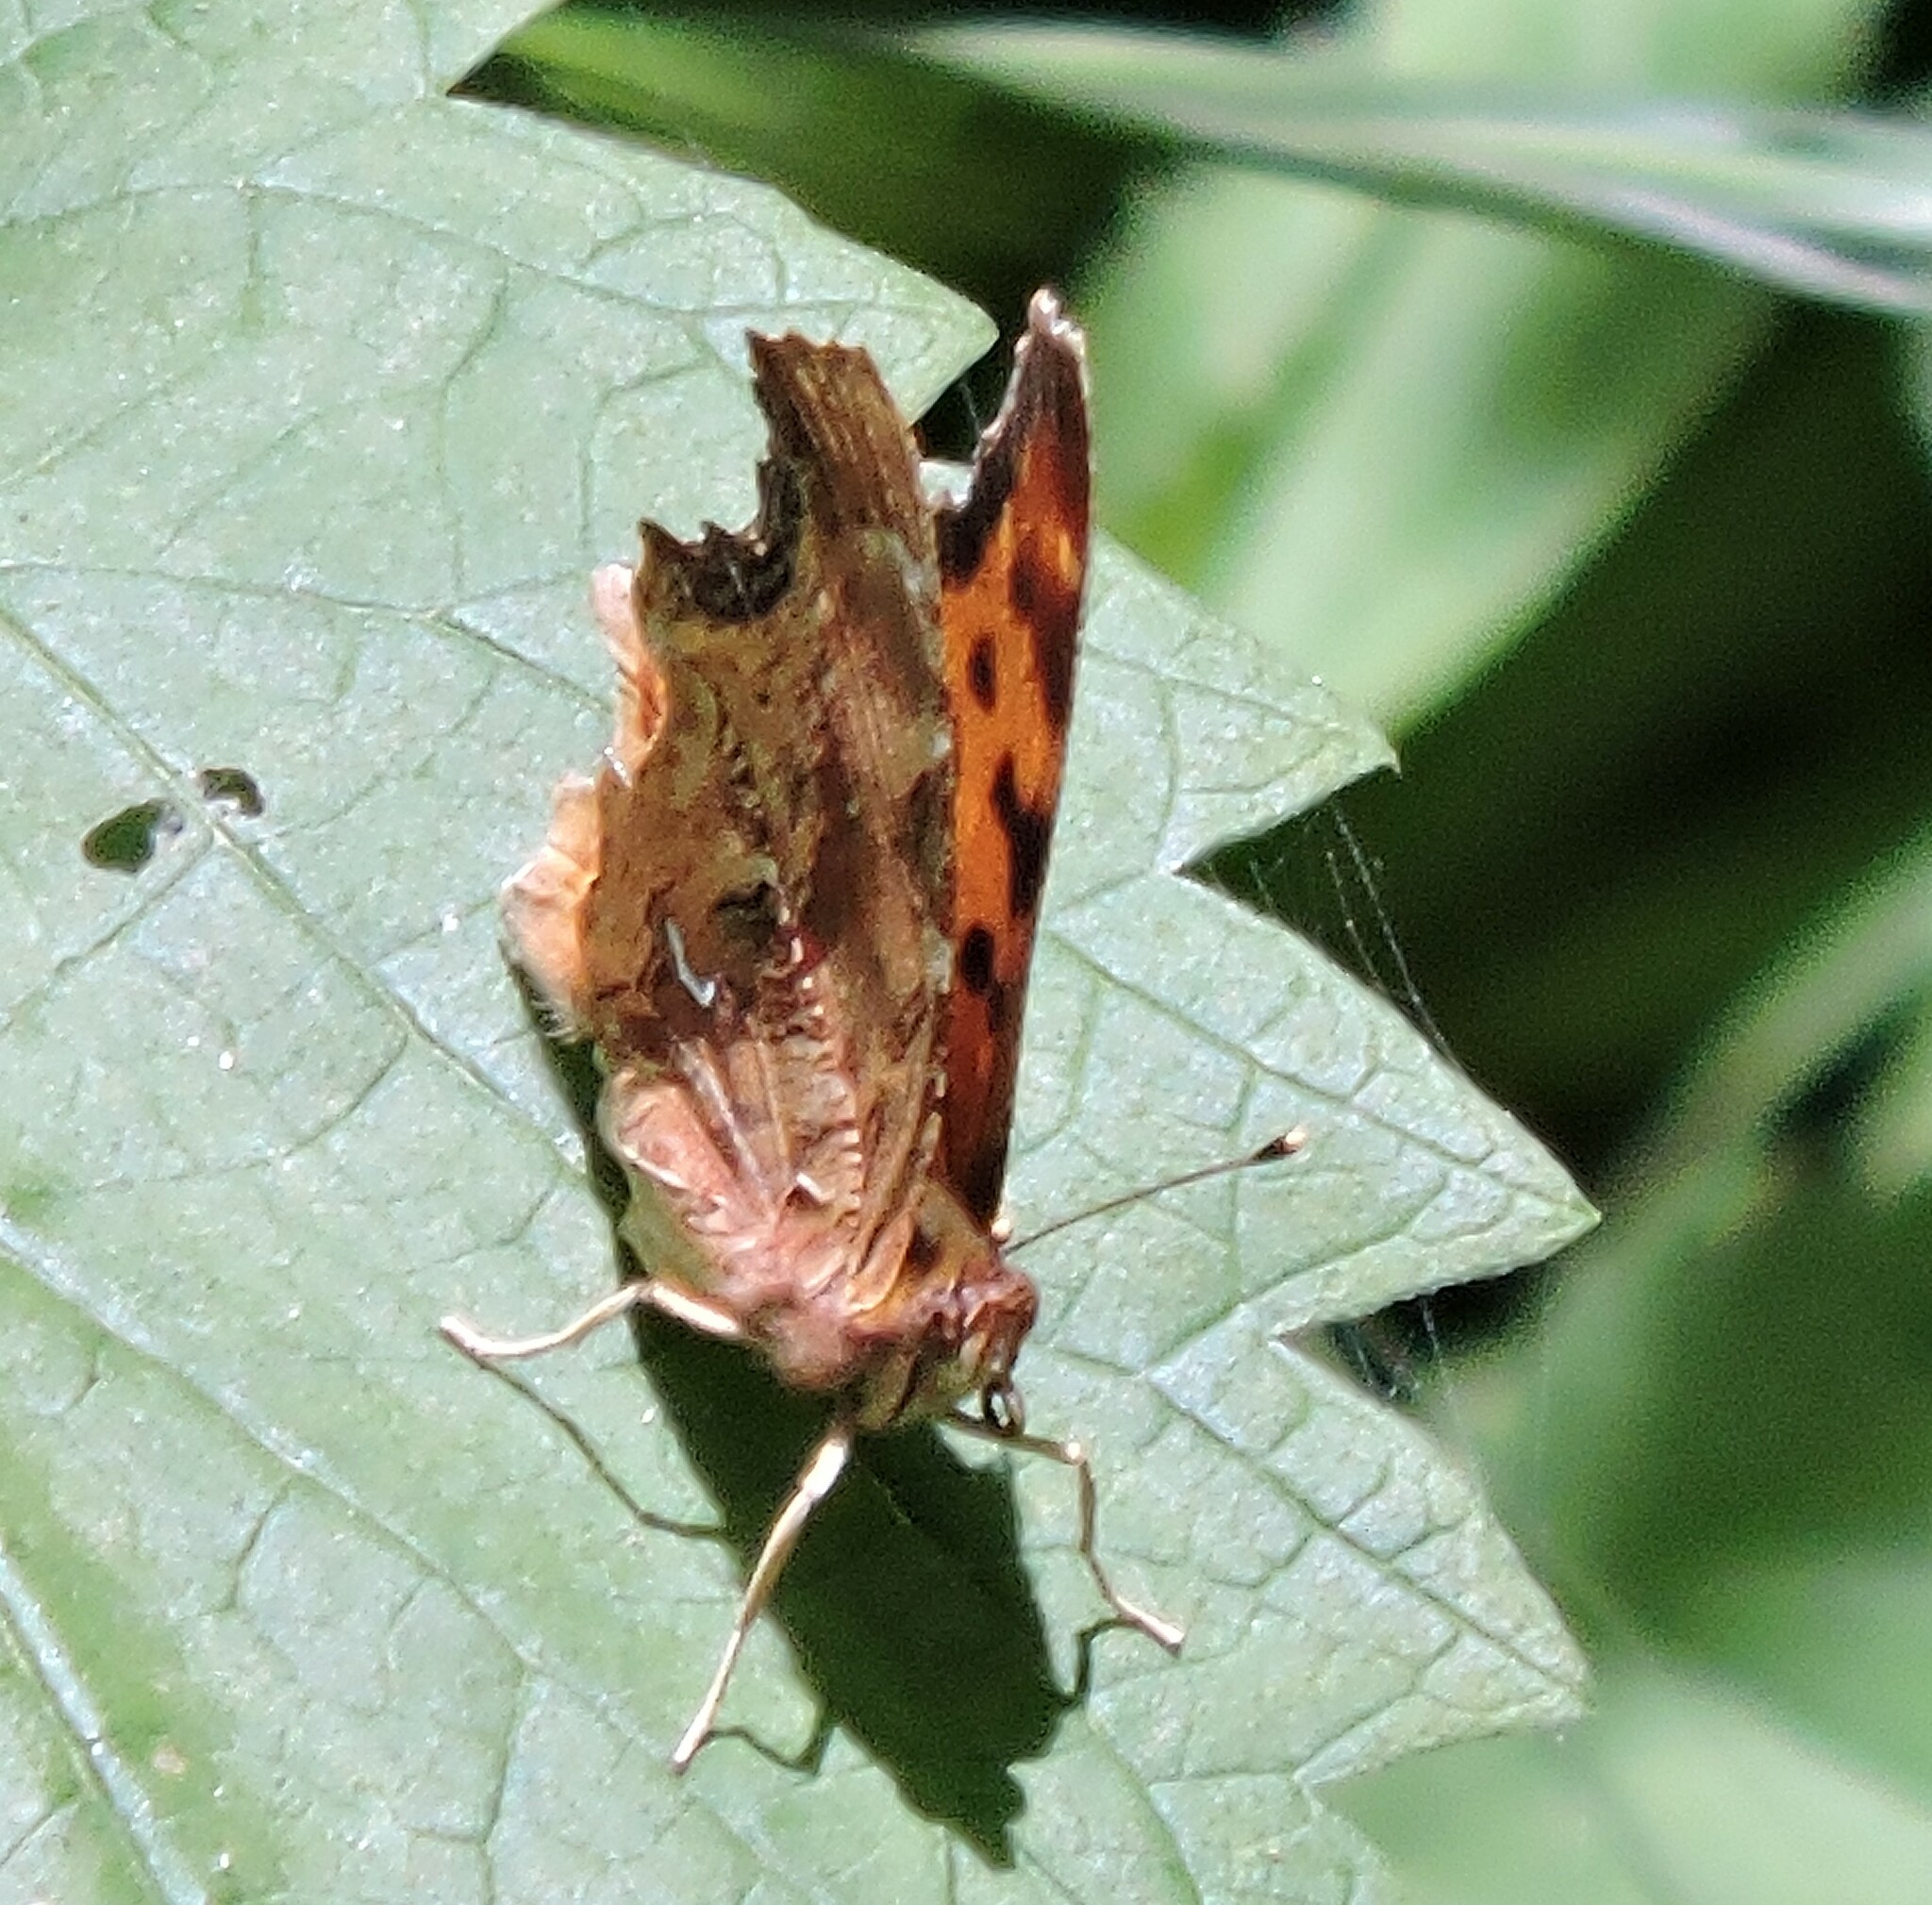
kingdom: Animalia
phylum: Arthropoda
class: Insecta
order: Lepidoptera
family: Nymphalidae
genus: Polygonia
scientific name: Polygonia satyrus
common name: Satyr angle wing
